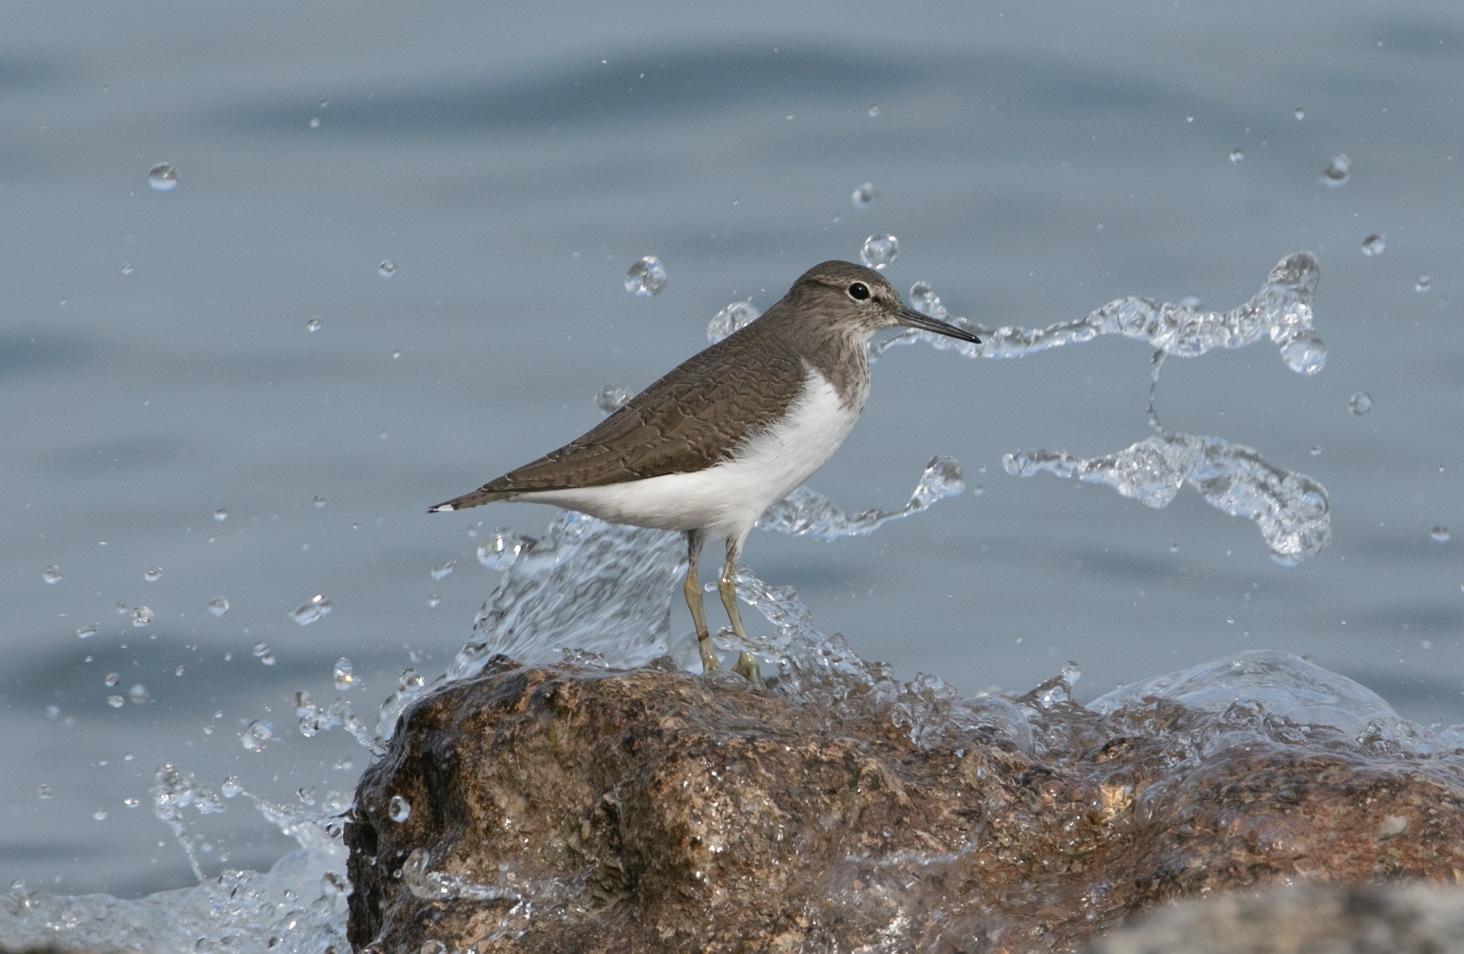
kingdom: Animalia
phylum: Chordata
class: Aves
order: Charadriiformes
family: Scolopacidae
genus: Actitis
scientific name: Actitis hypoleucos
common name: Common sandpiper
